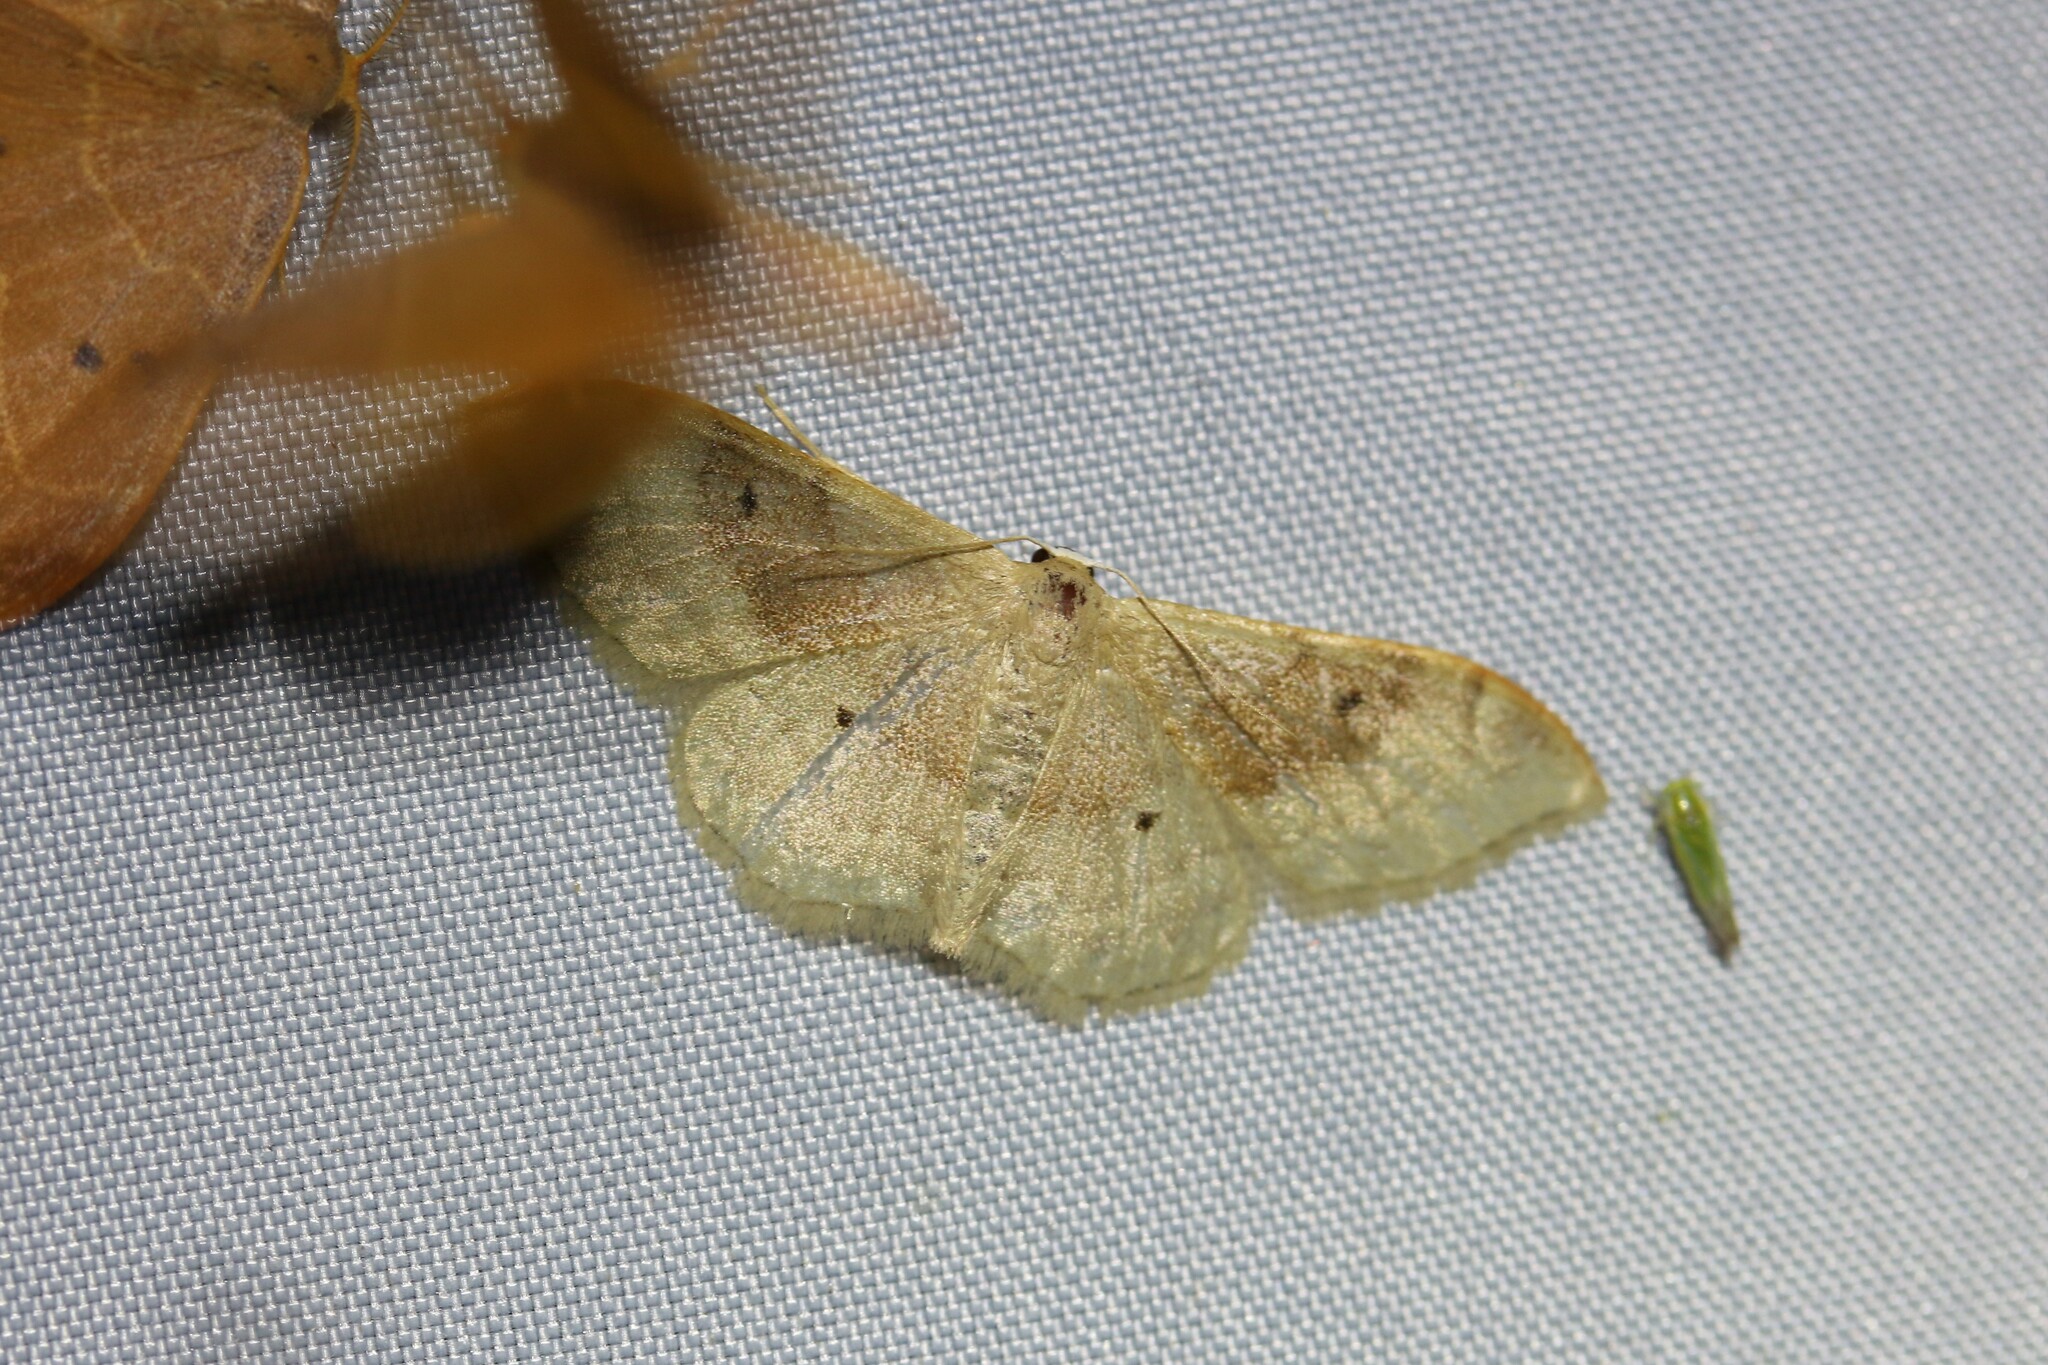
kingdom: Animalia
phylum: Arthropoda
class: Insecta
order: Lepidoptera
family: Geometridae
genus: Idaea
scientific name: Idaea degeneraria
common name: Portland ribbon wave
